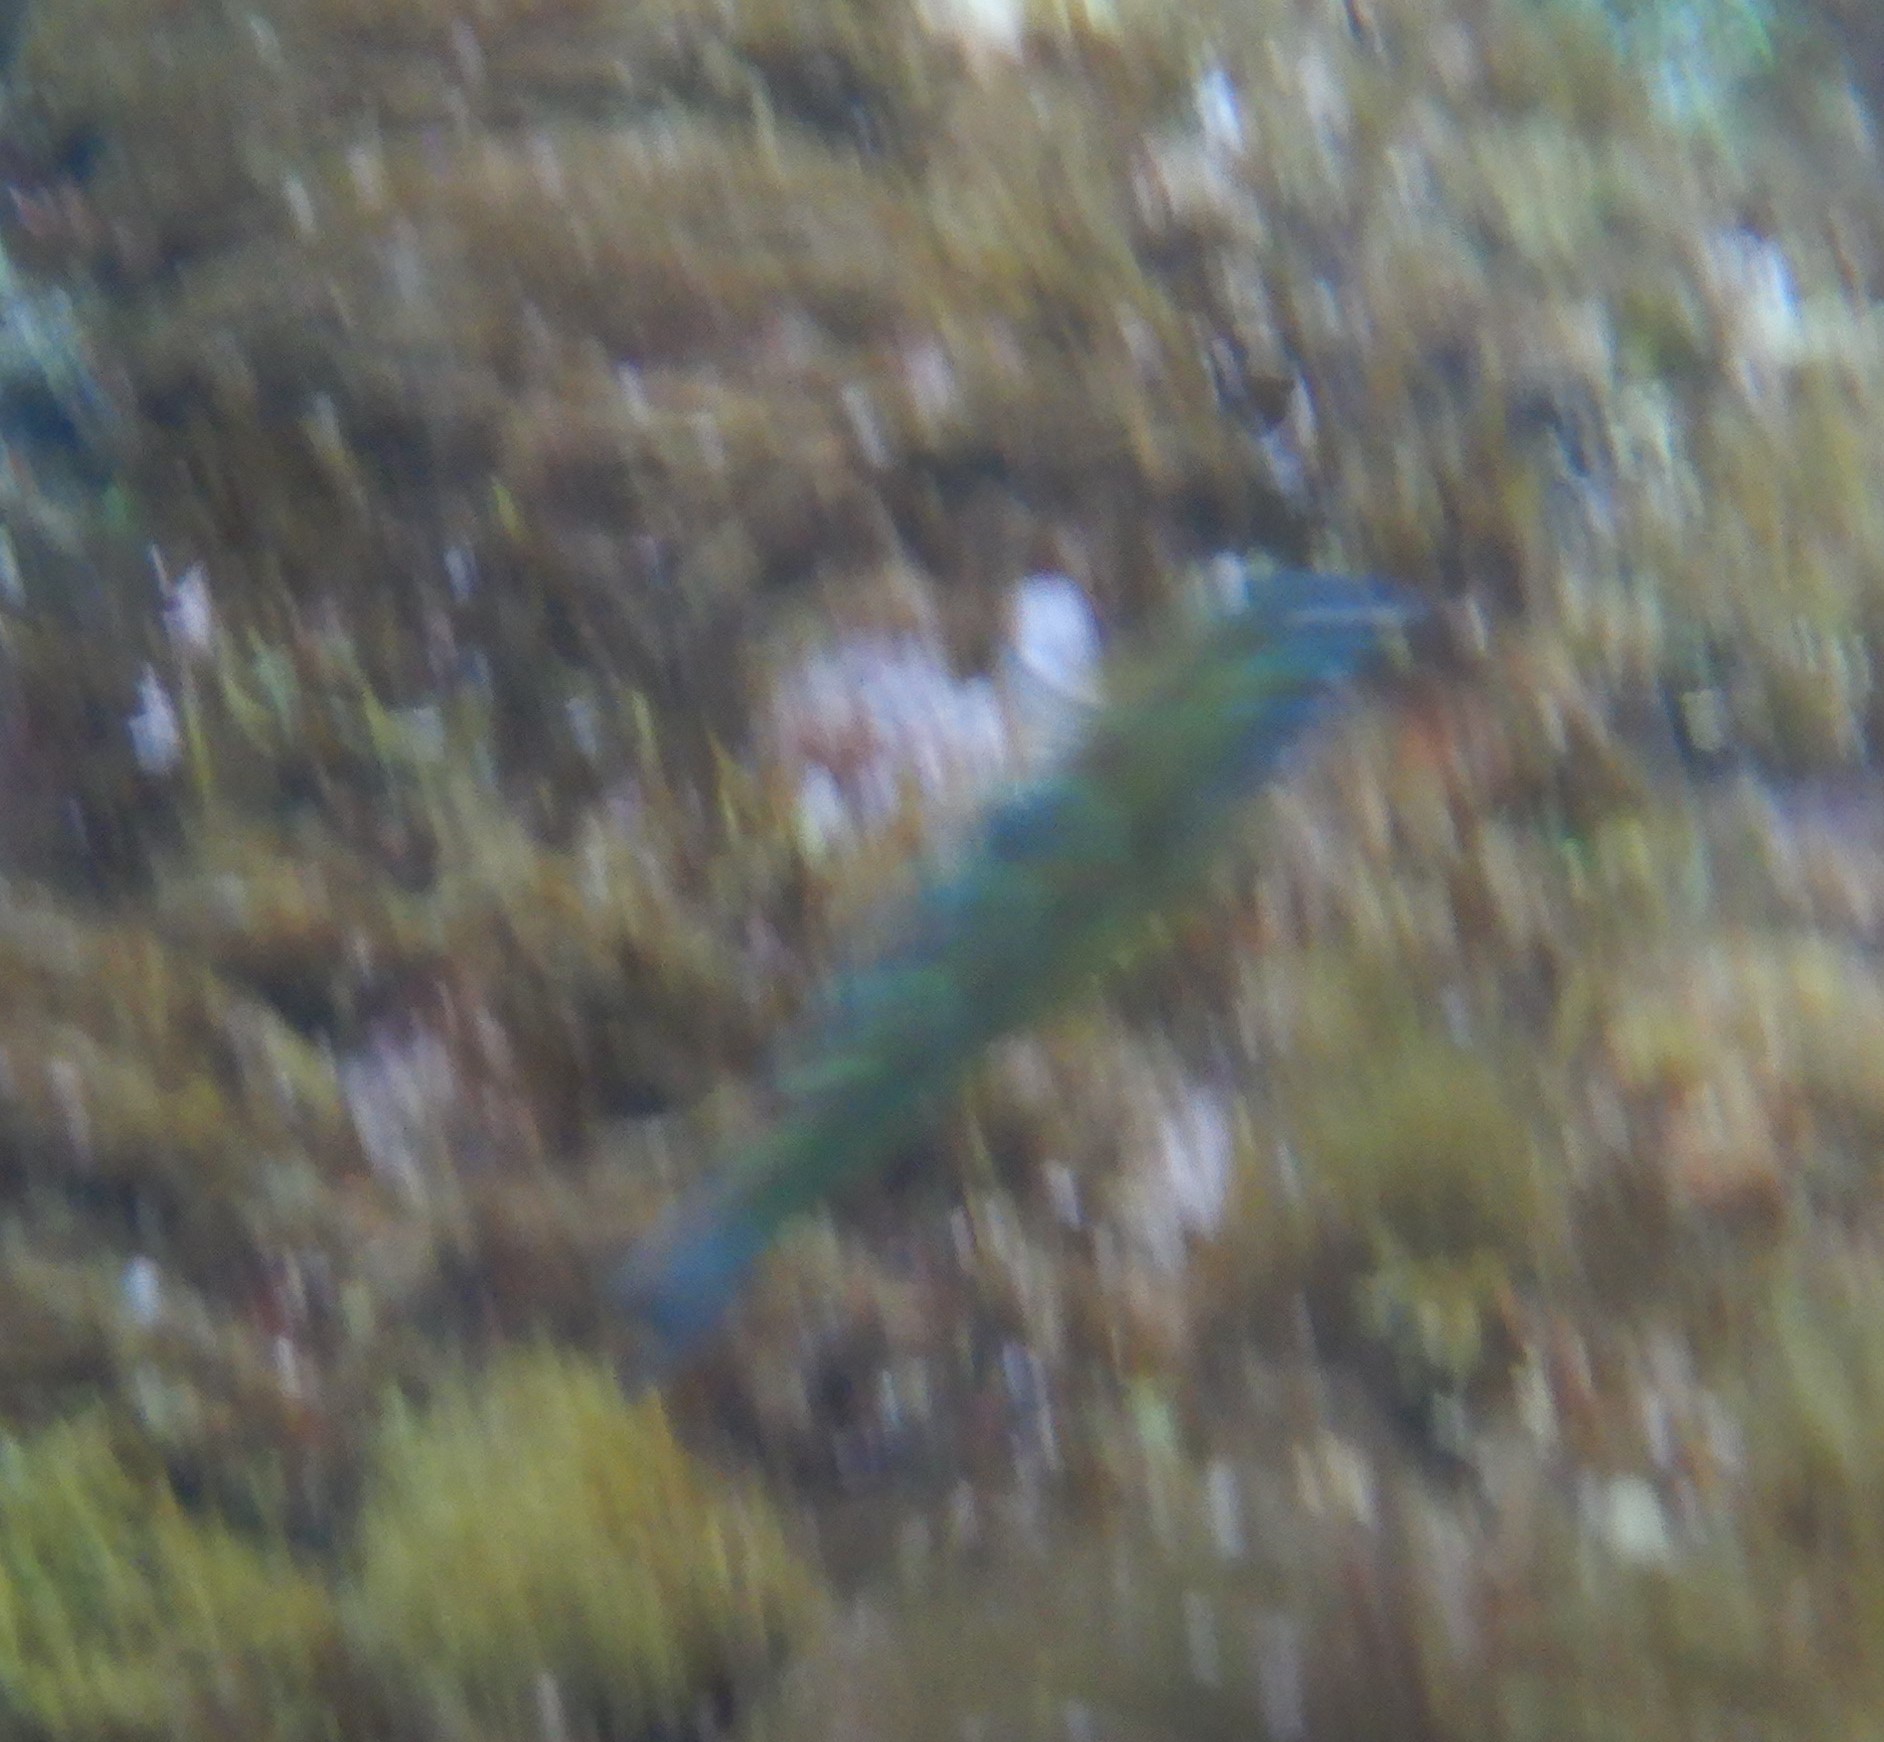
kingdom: Animalia
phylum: Chordata
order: Perciformes
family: Labridae
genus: Thalassoma
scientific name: Thalassoma pavo
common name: Ornate wrasse
